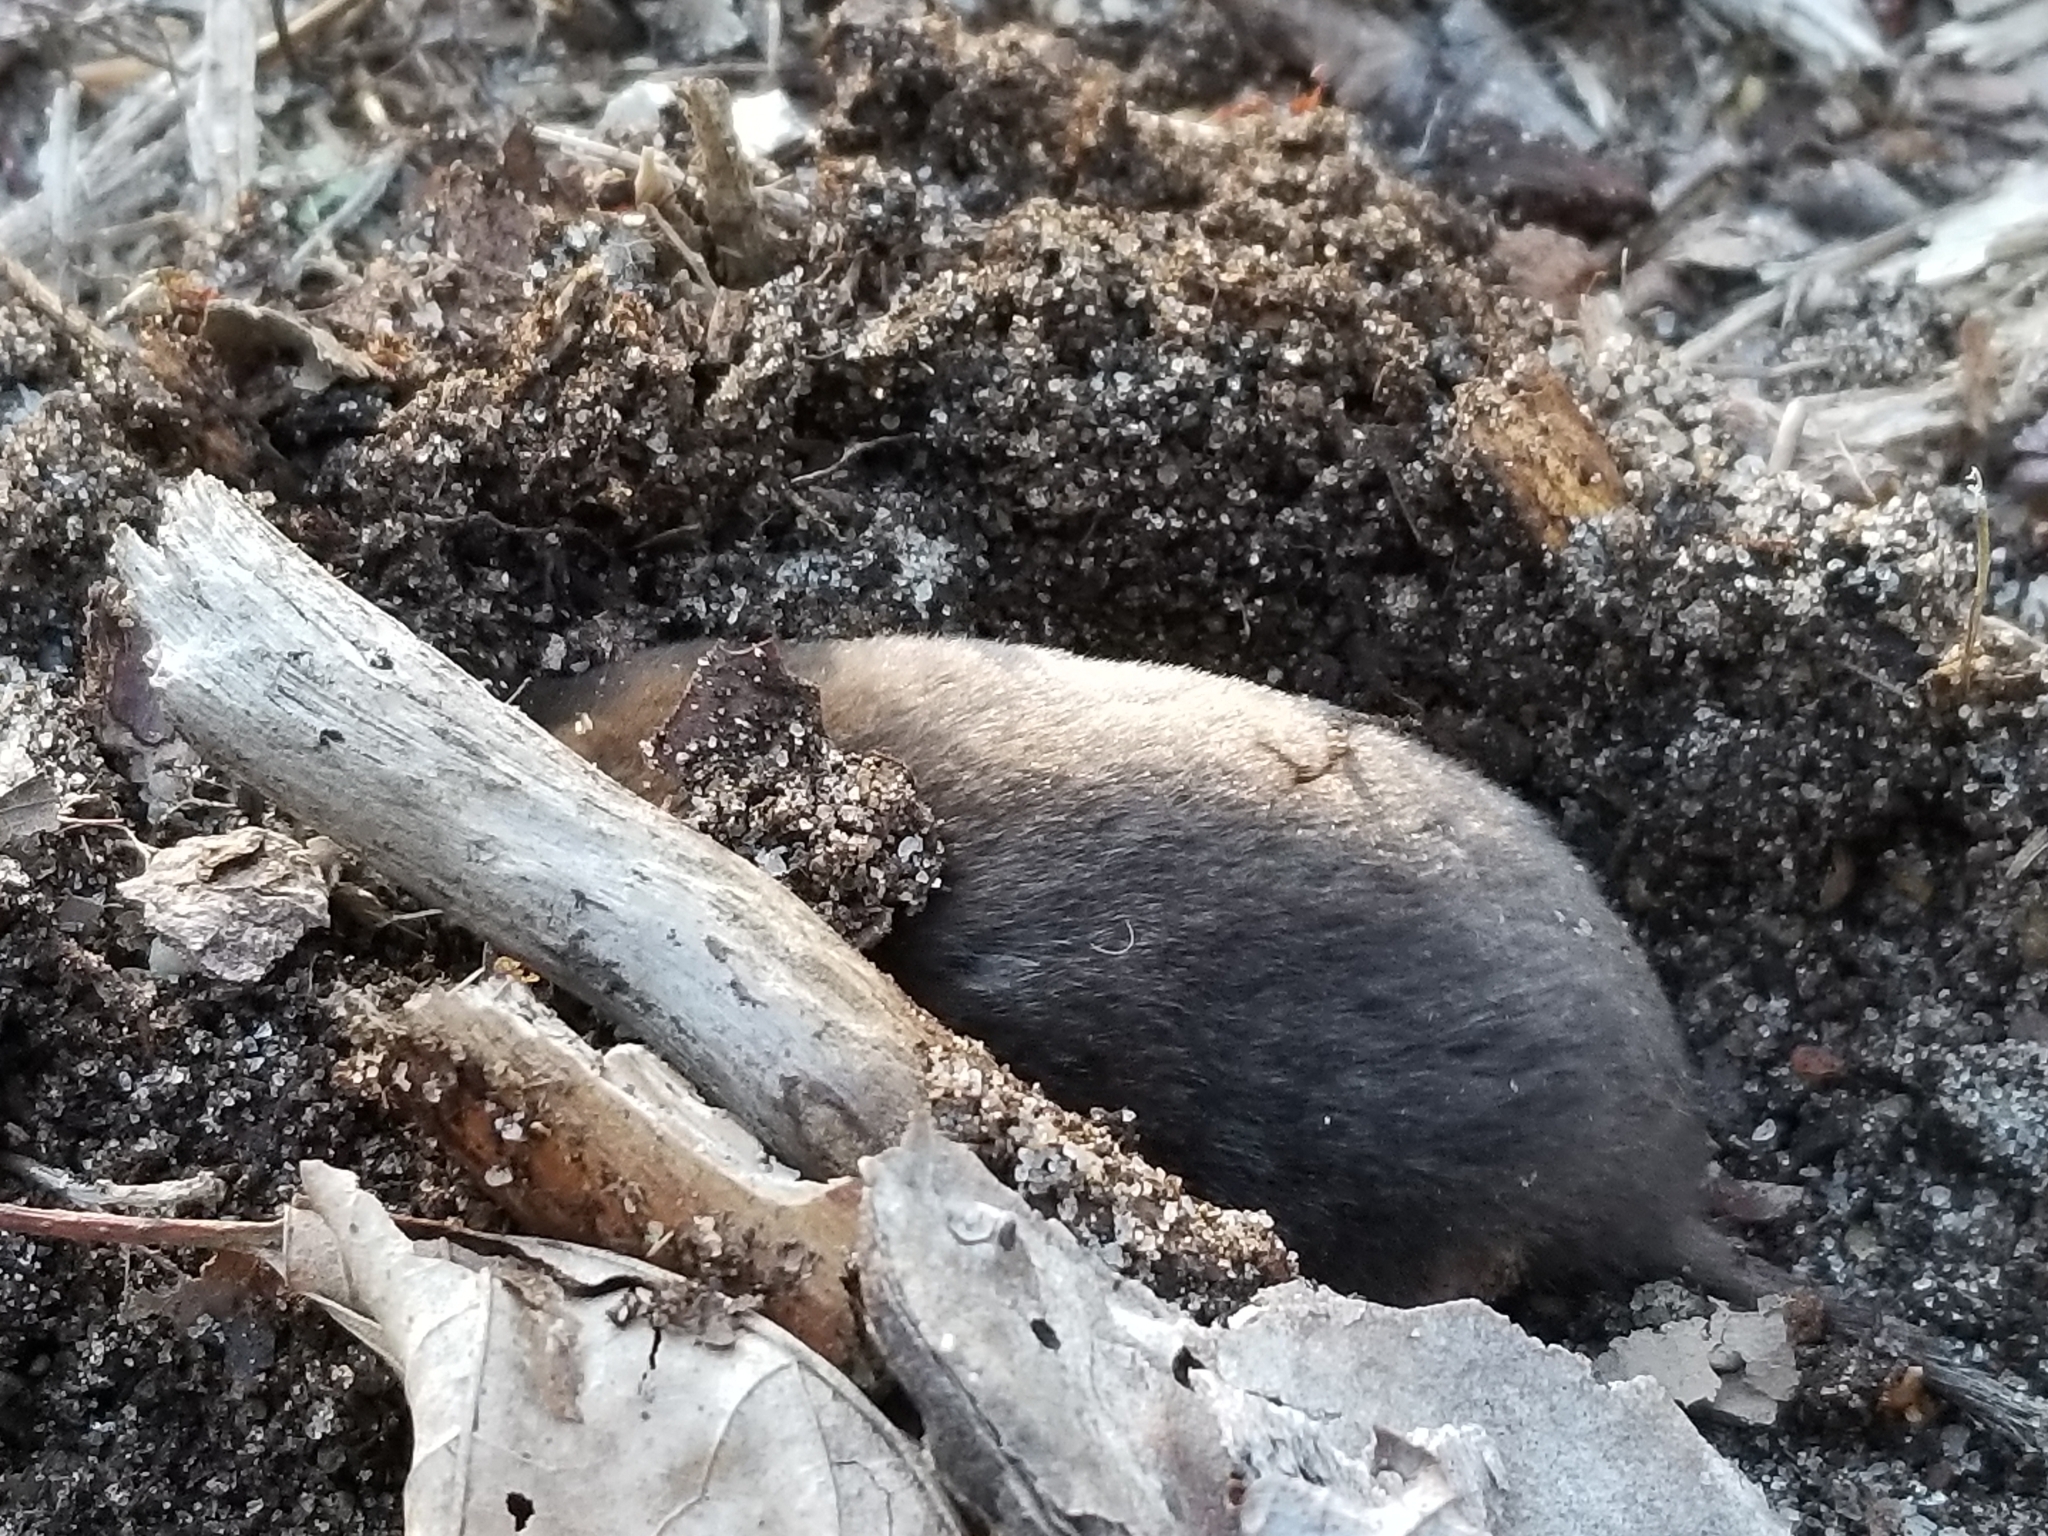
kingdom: Animalia
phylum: Chordata
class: Mammalia
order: Soricomorpha
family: Soricidae
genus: Blarina
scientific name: Blarina brevicauda
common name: Northern short-tailed shrew
